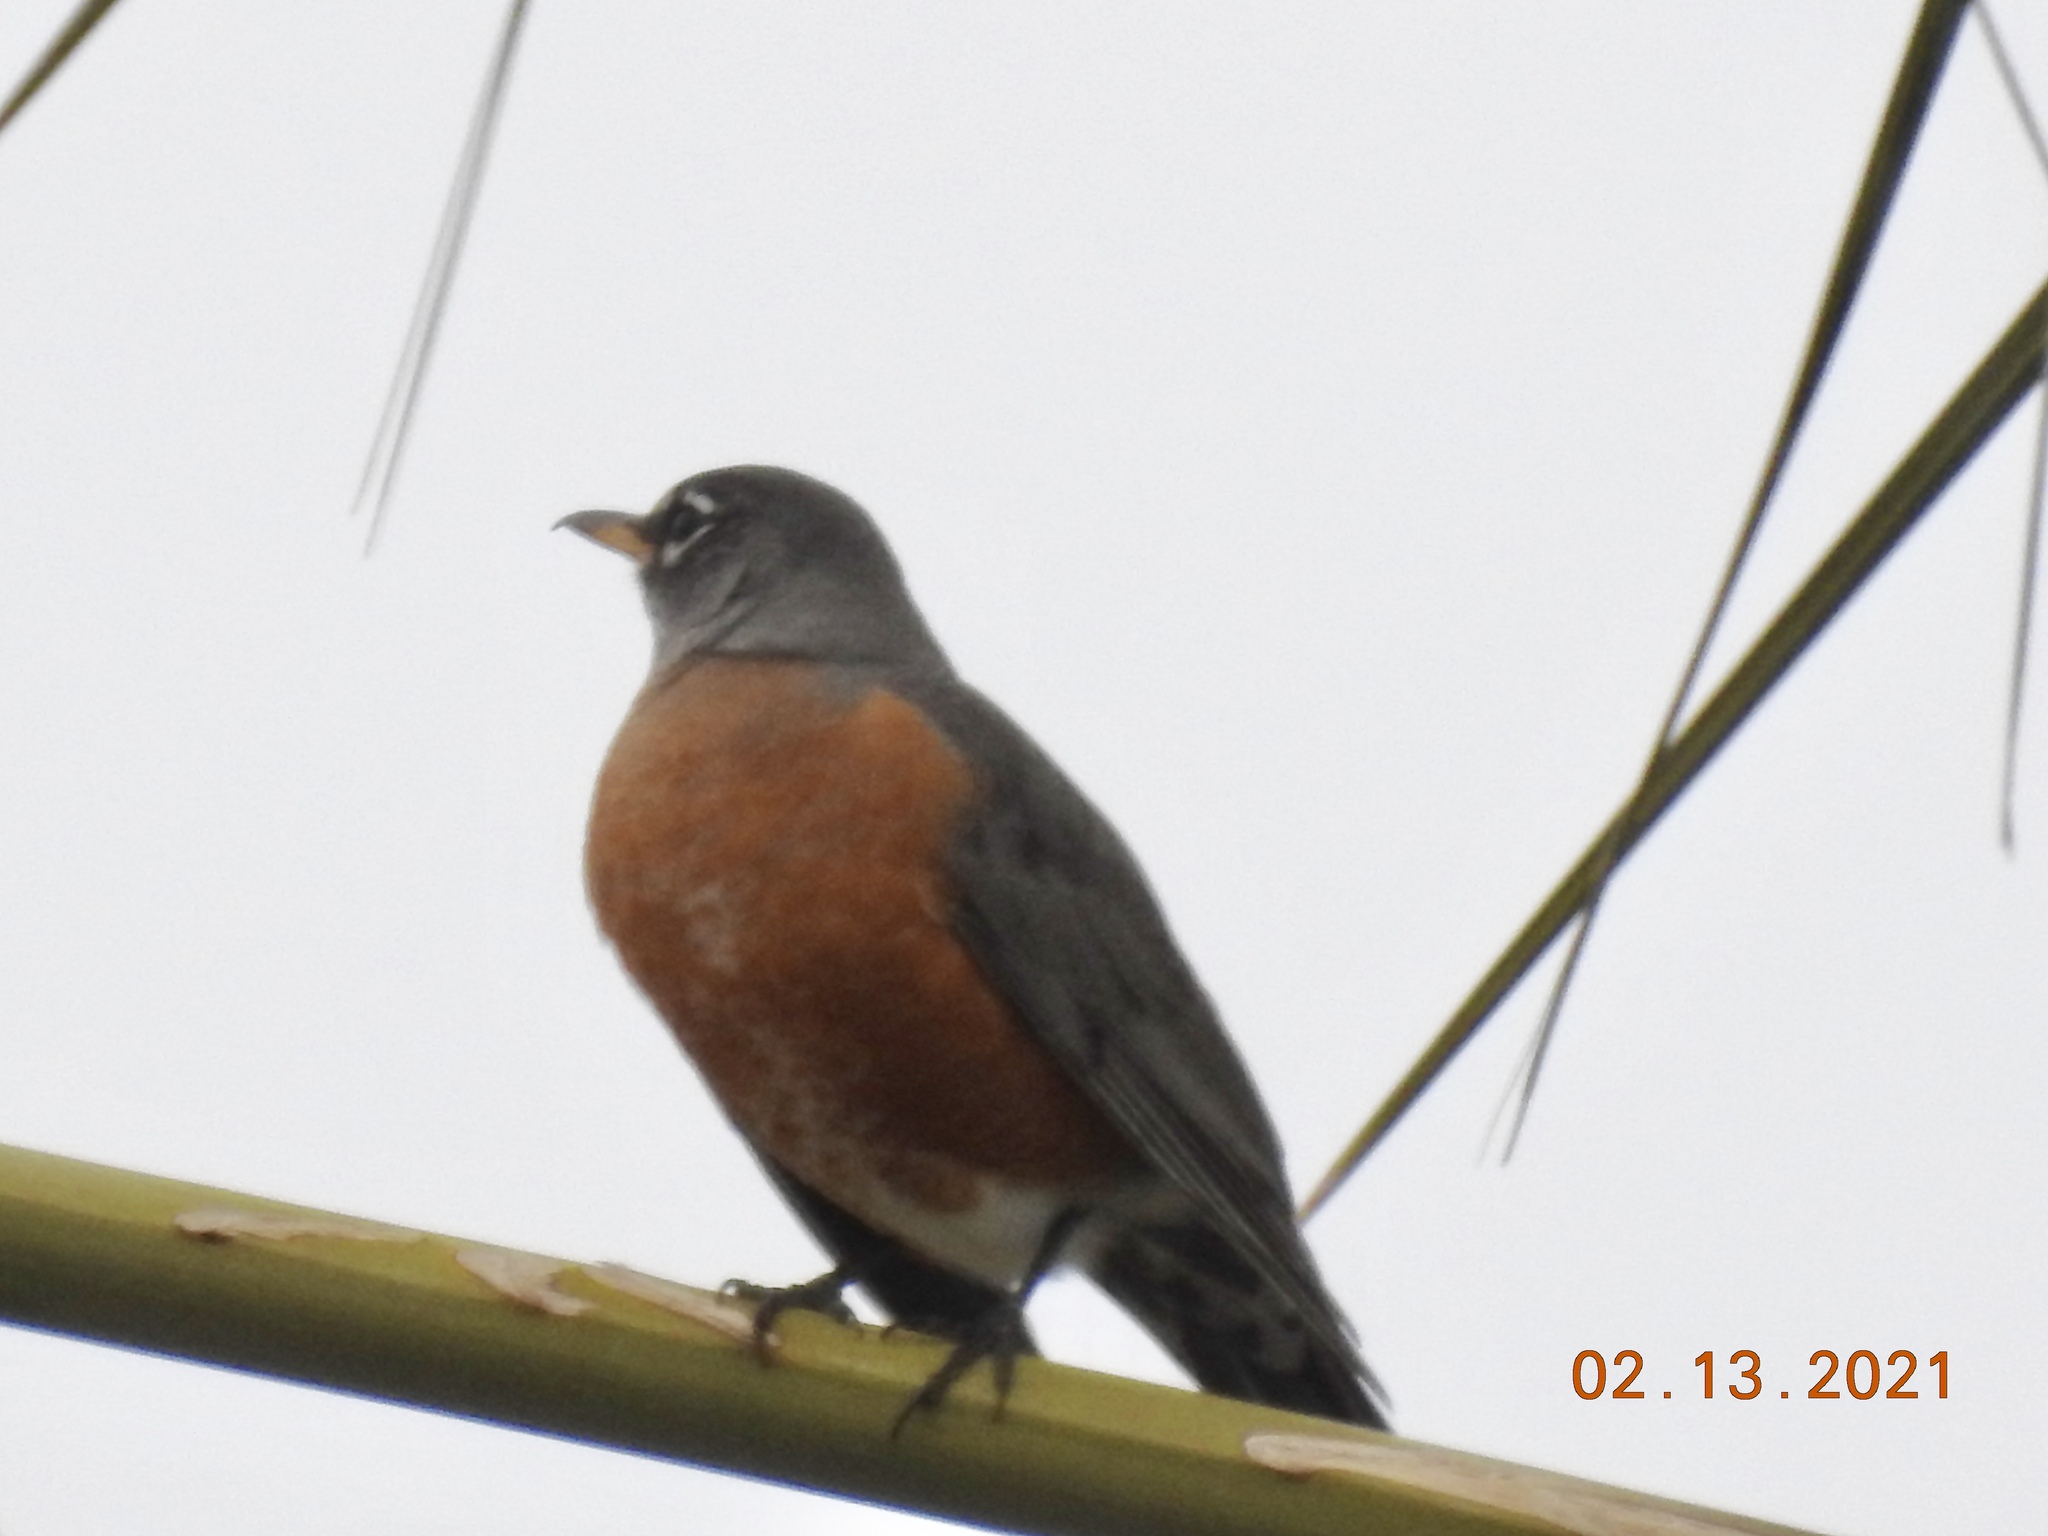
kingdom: Animalia
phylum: Chordata
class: Aves
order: Passeriformes
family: Turdidae
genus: Turdus
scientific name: Turdus migratorius
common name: American robin
